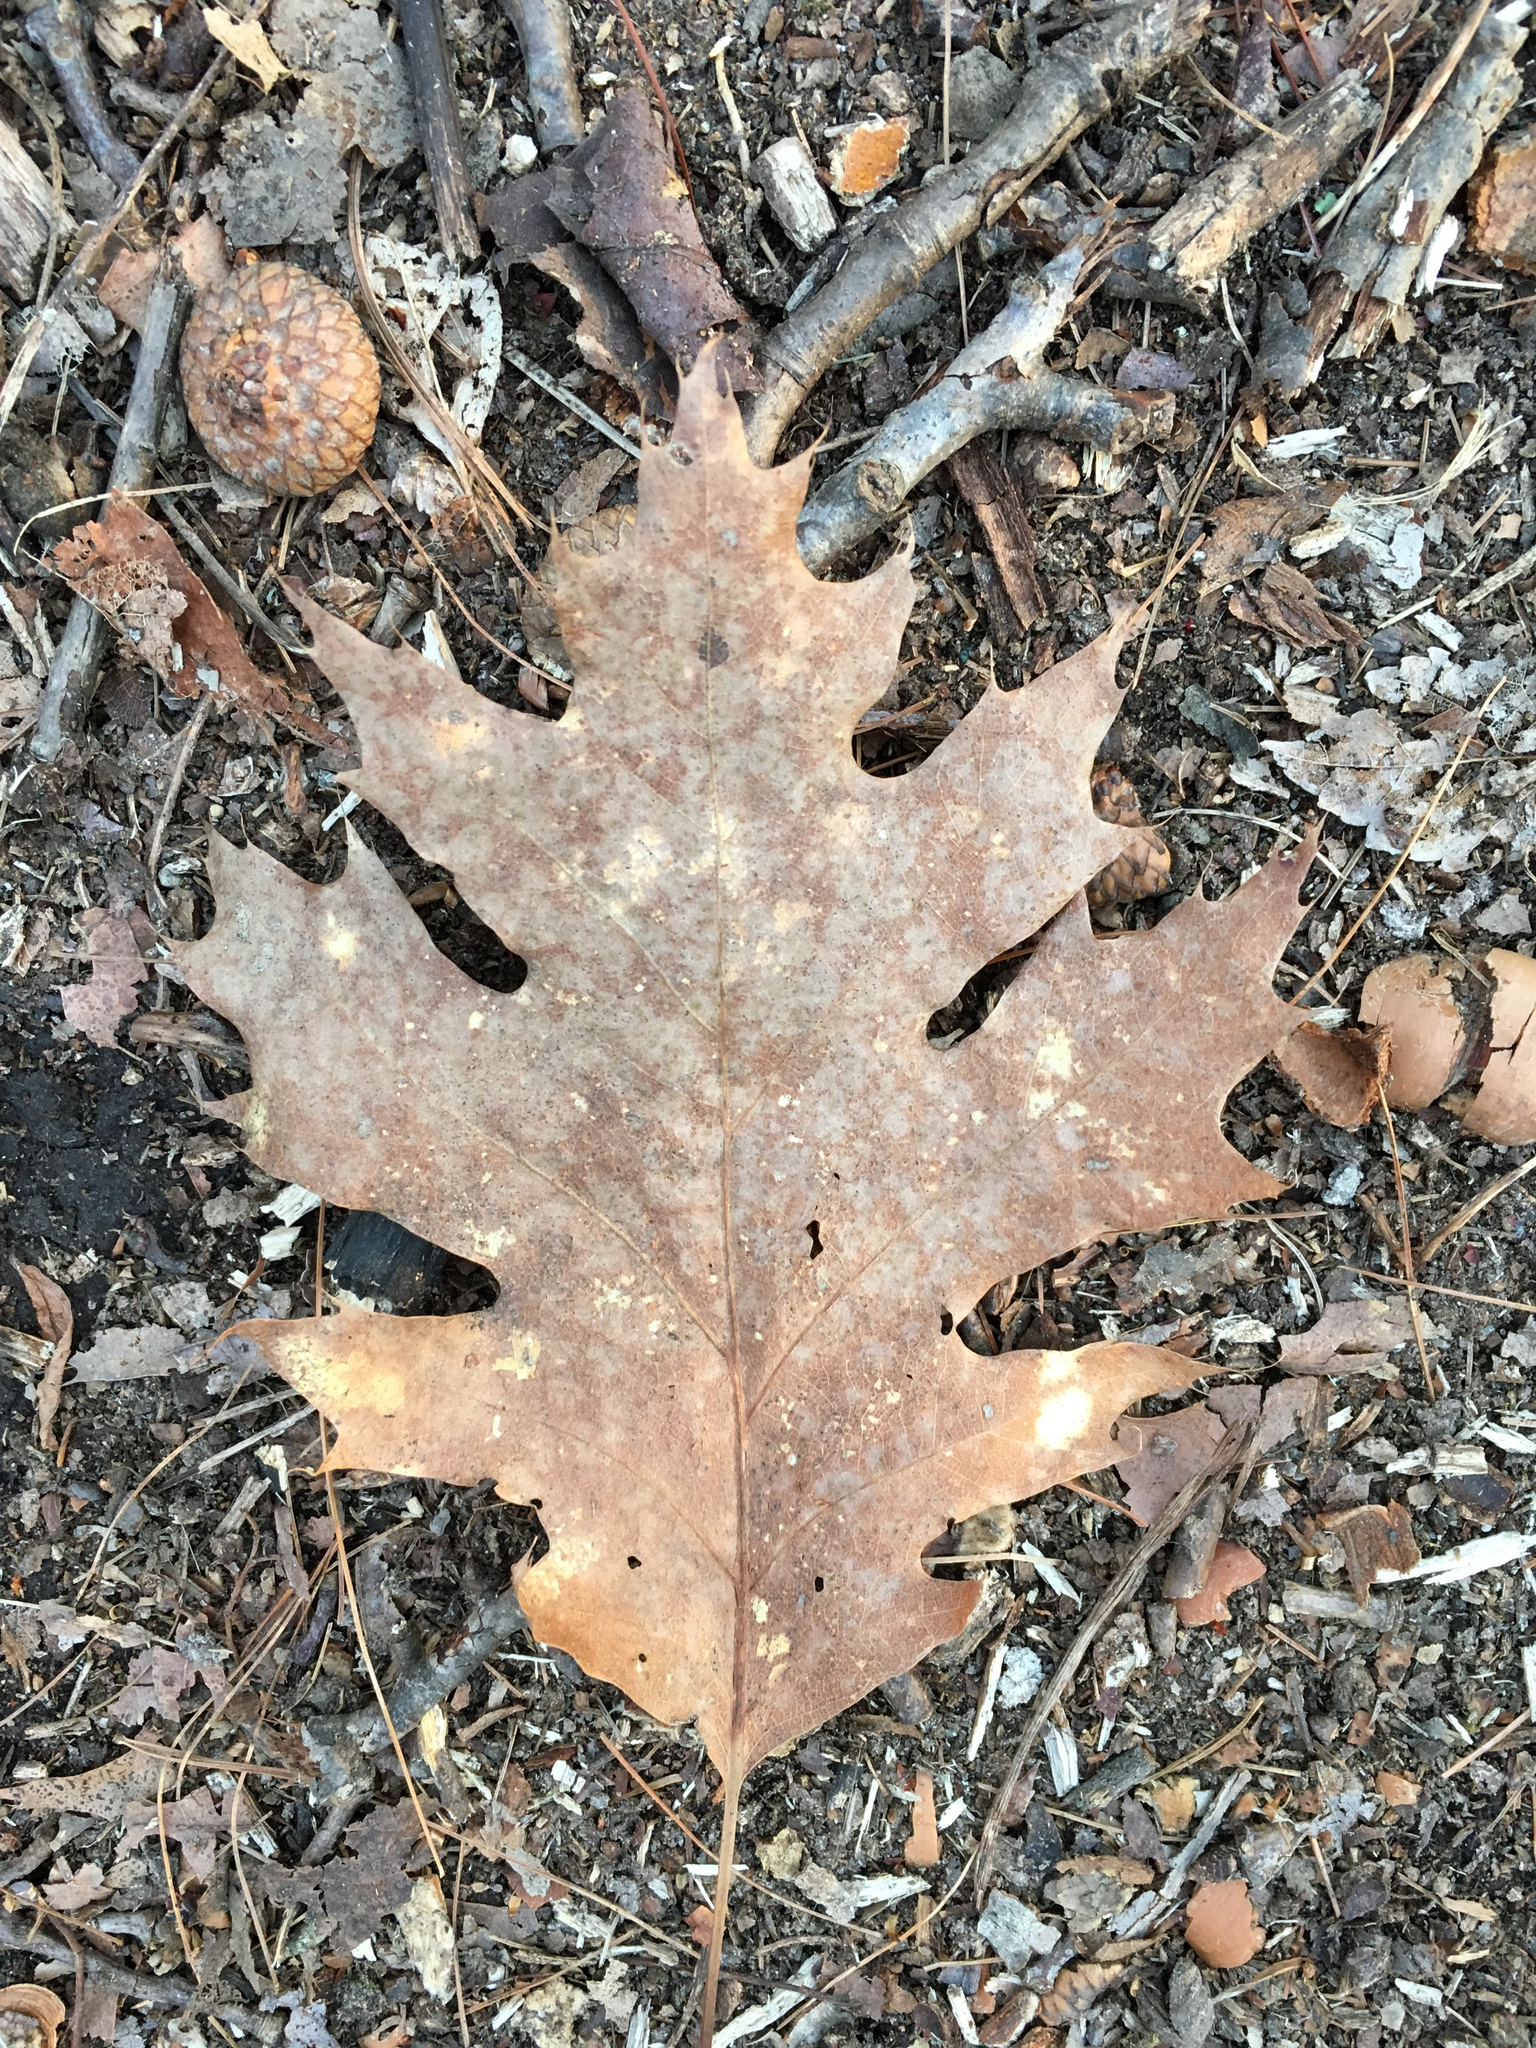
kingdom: Plantae
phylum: Tracheophyta
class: Magnoliopsida
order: Fagales
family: Fagaceae
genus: Quercus
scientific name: Quercus rubra
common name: Red oak
